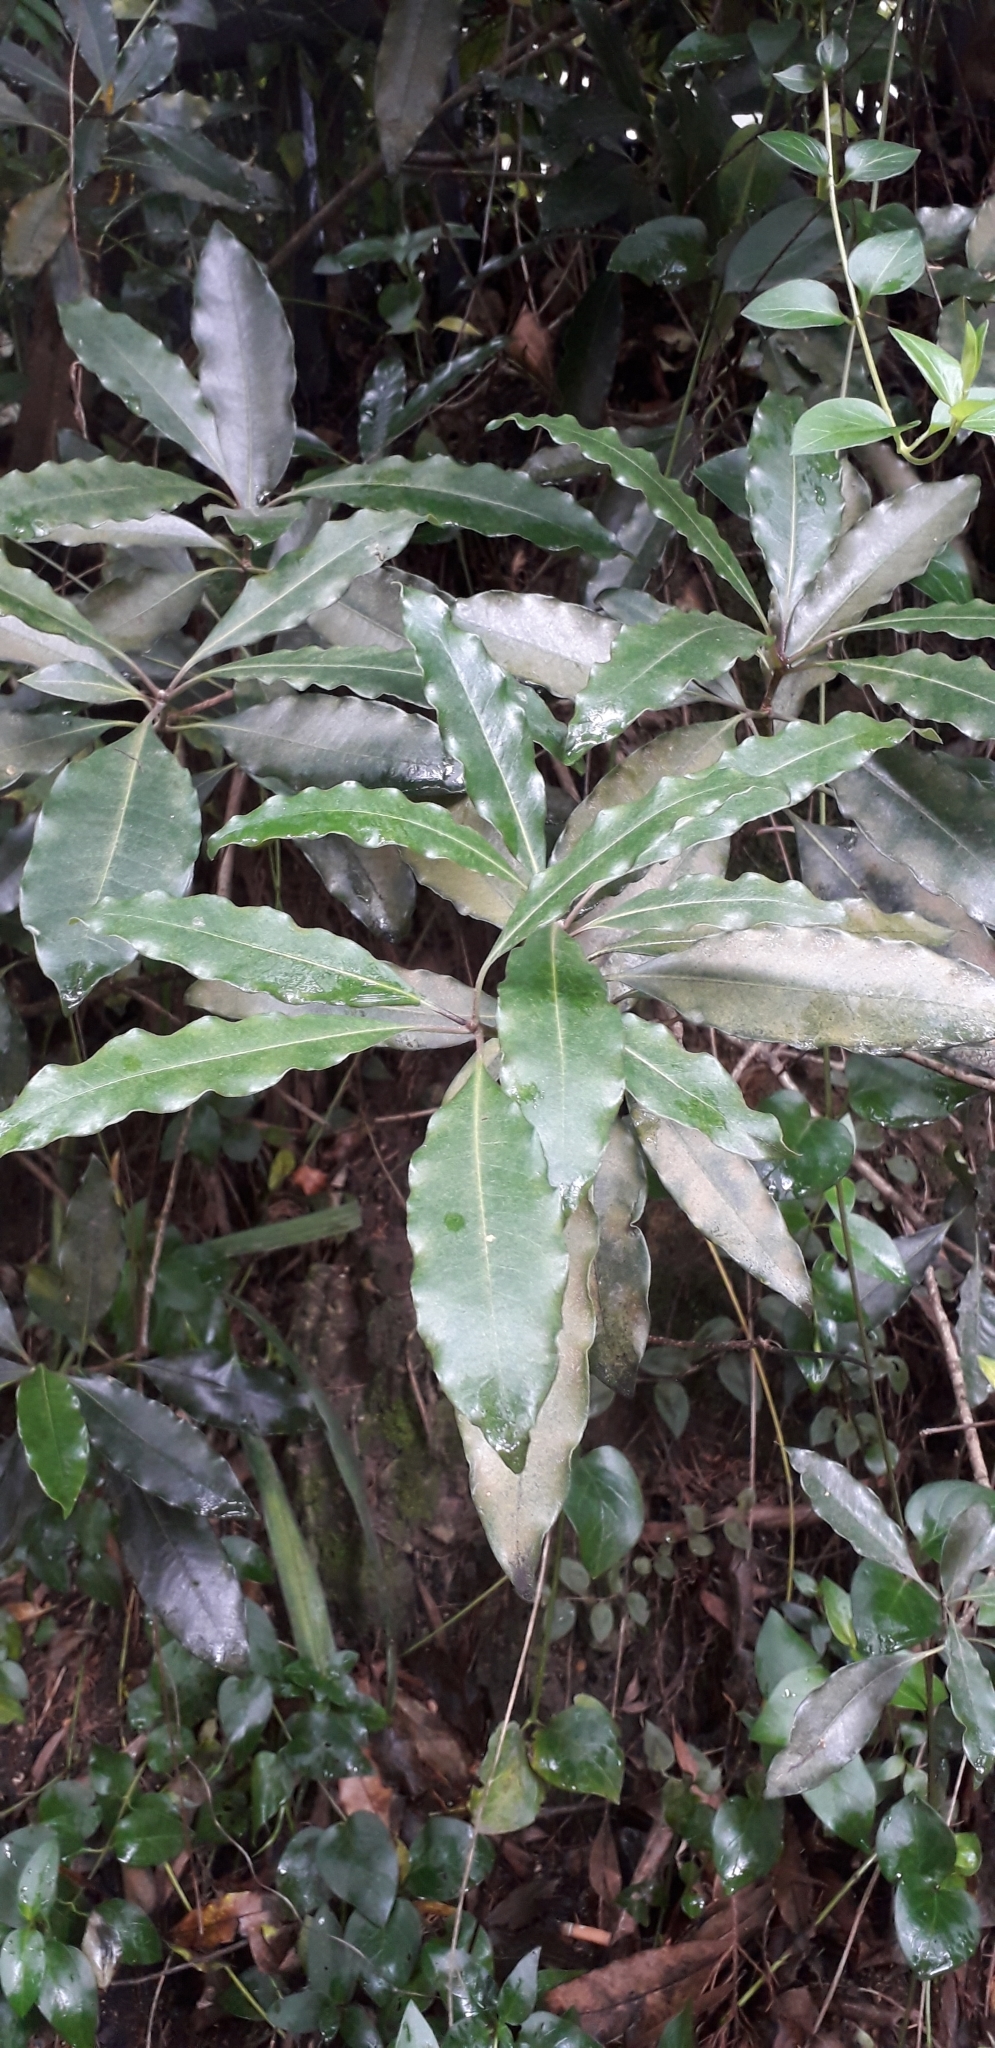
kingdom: Plantae
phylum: Tracheophyta
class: Magnoliopsida
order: Apiales
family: Pittosporaceae
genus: Pittosporum
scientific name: Pittosporum undulatum
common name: Australian cheesewood
